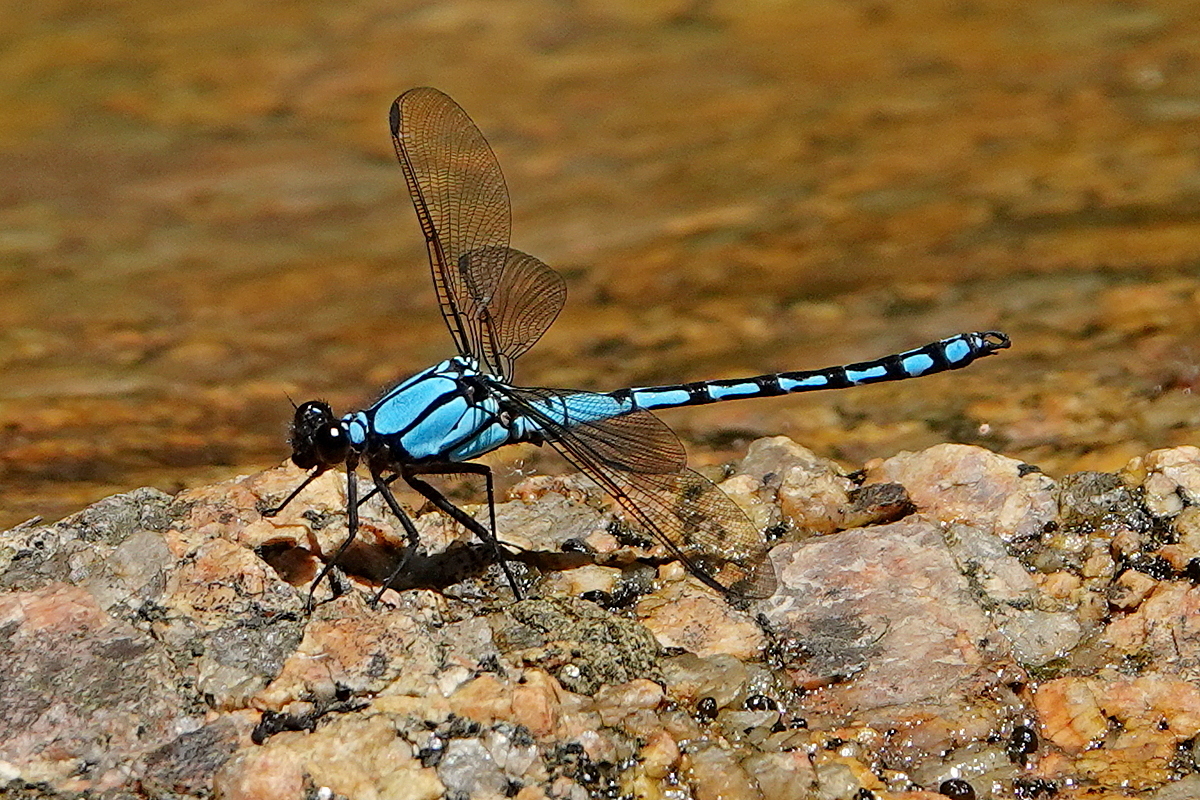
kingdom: Animalia
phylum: Arthropoda
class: Insecta
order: Odonata
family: Lestoideidae
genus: Diphlebia
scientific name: Diphlebia nymphoides
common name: Arrowhead rockmaster
